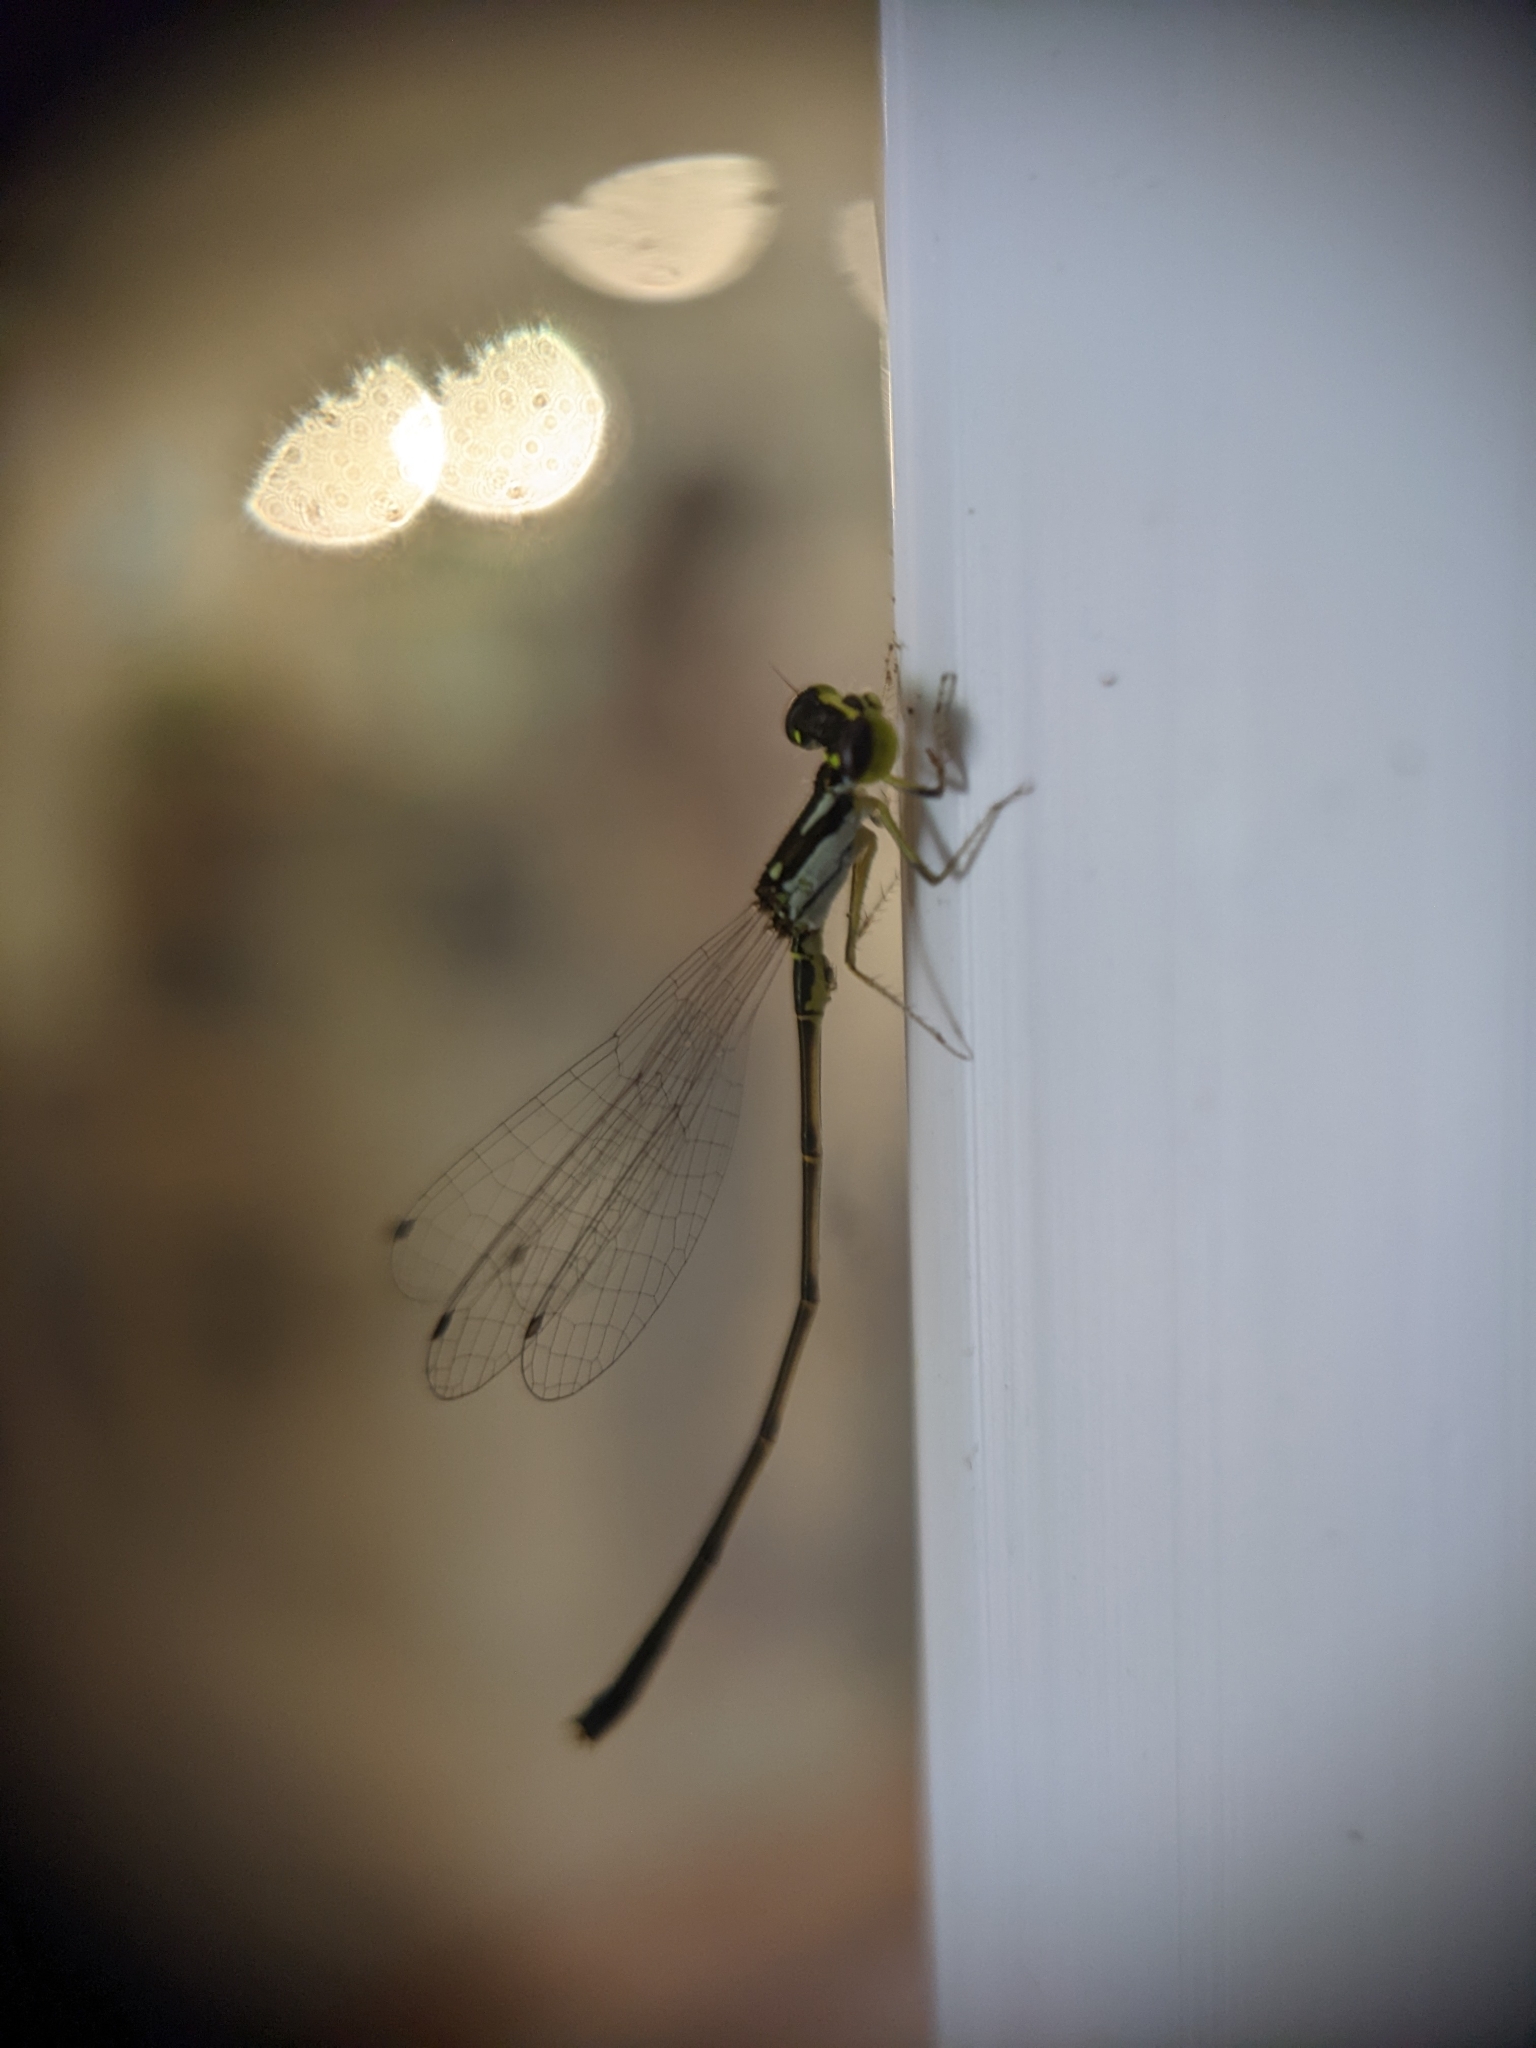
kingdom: Animalia
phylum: Arthropoda
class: Insecta
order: Odonata
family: Coenagrionidae
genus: Ischnura
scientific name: Ischnura posita
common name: Fragile forktail
